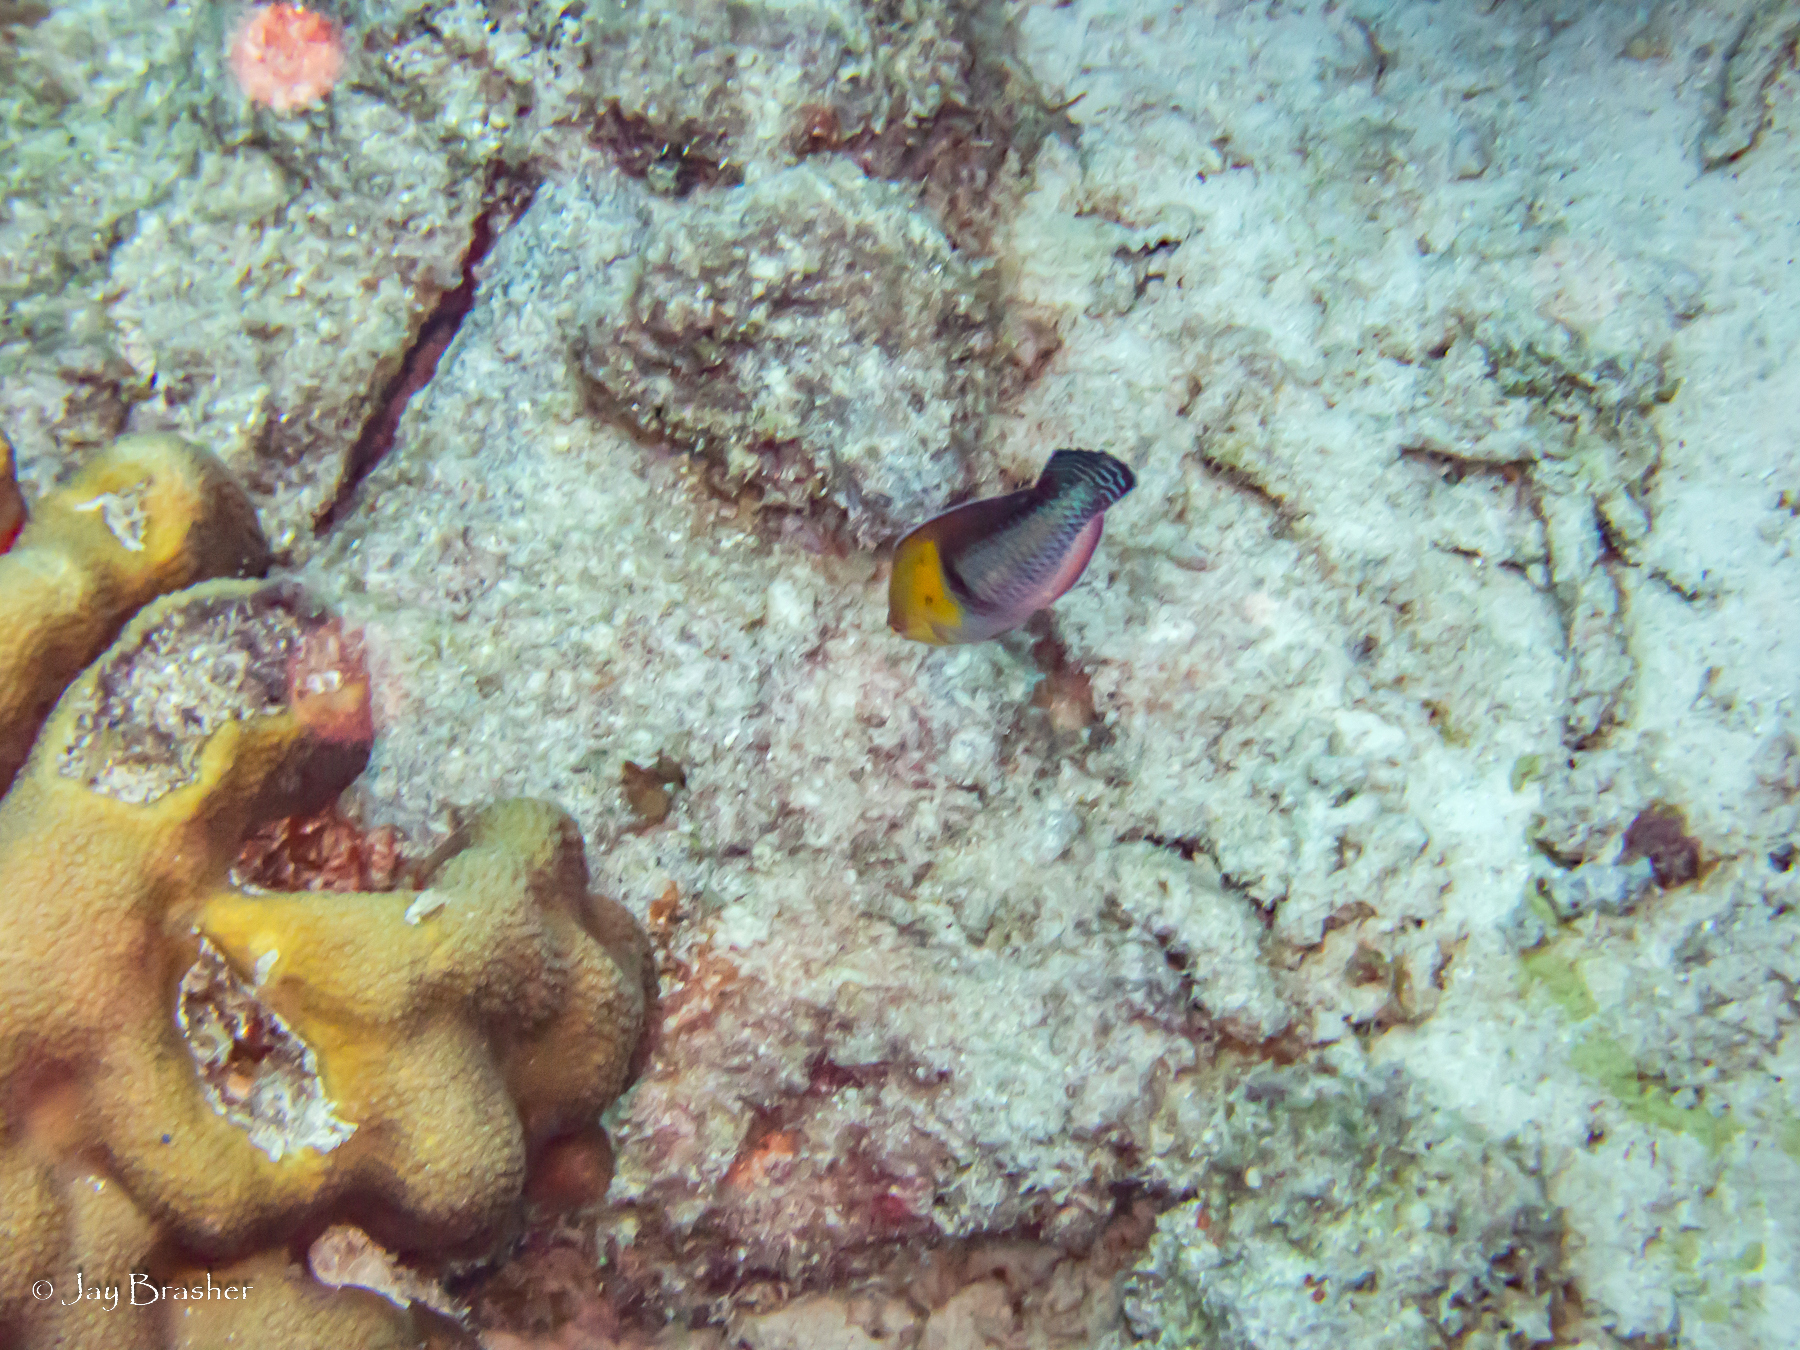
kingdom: Animalia
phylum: Chordata
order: Perciformes
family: Labridae
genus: Halichoeres
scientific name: Halichoeres garnoti
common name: Yellowhead wrasse
